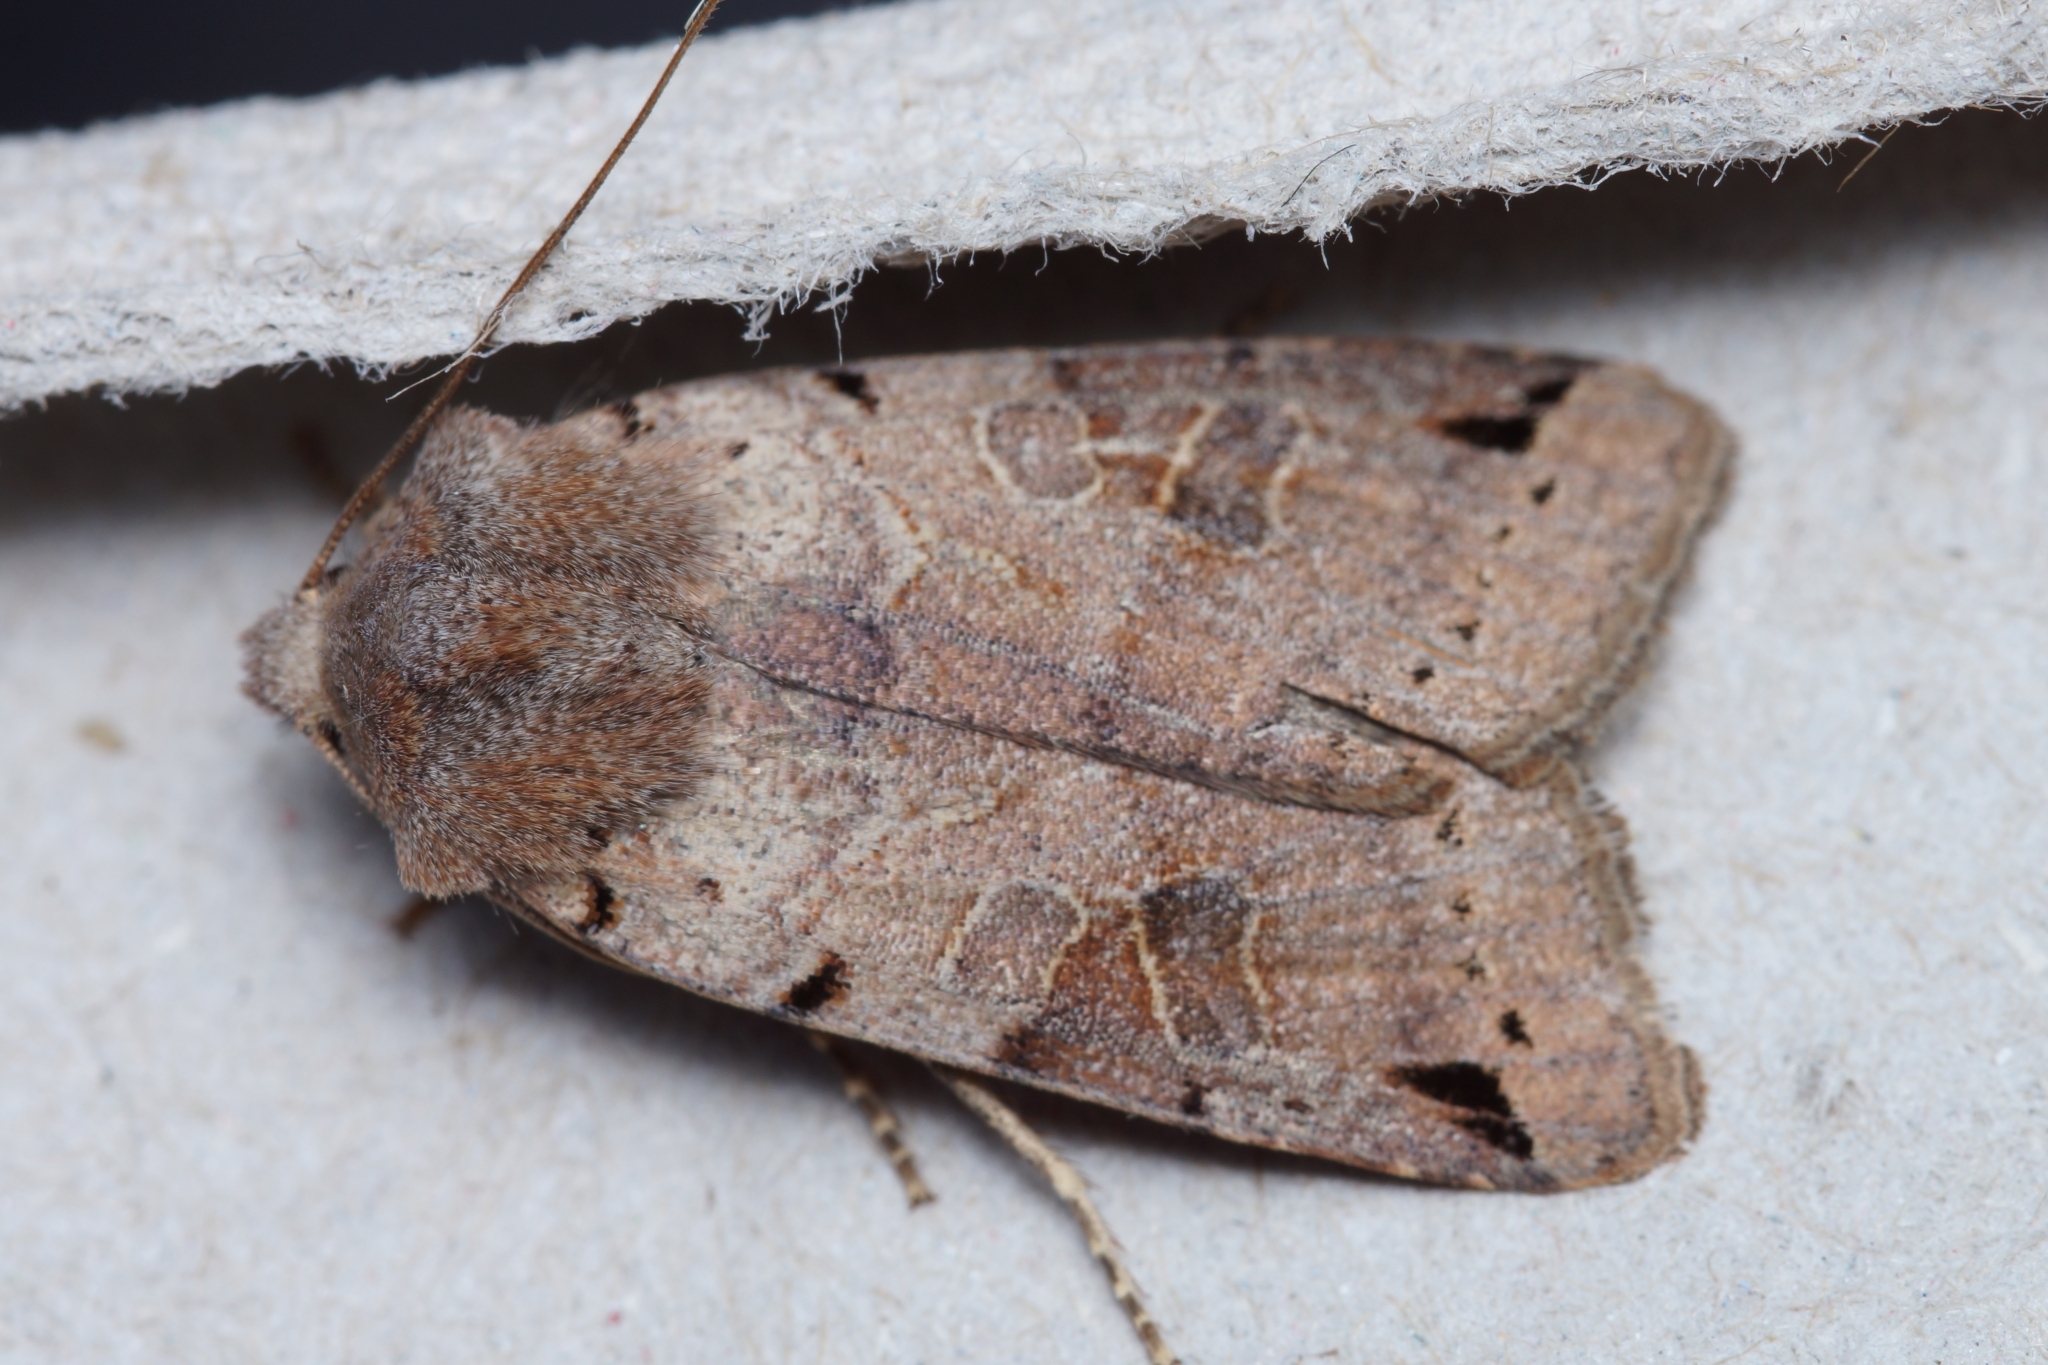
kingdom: Animalia
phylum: Arthropoda
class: Insecta
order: Lepidoptera
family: Noctuidae
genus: Agrochola
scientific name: Agrochola litura
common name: Brown-spot pinion
